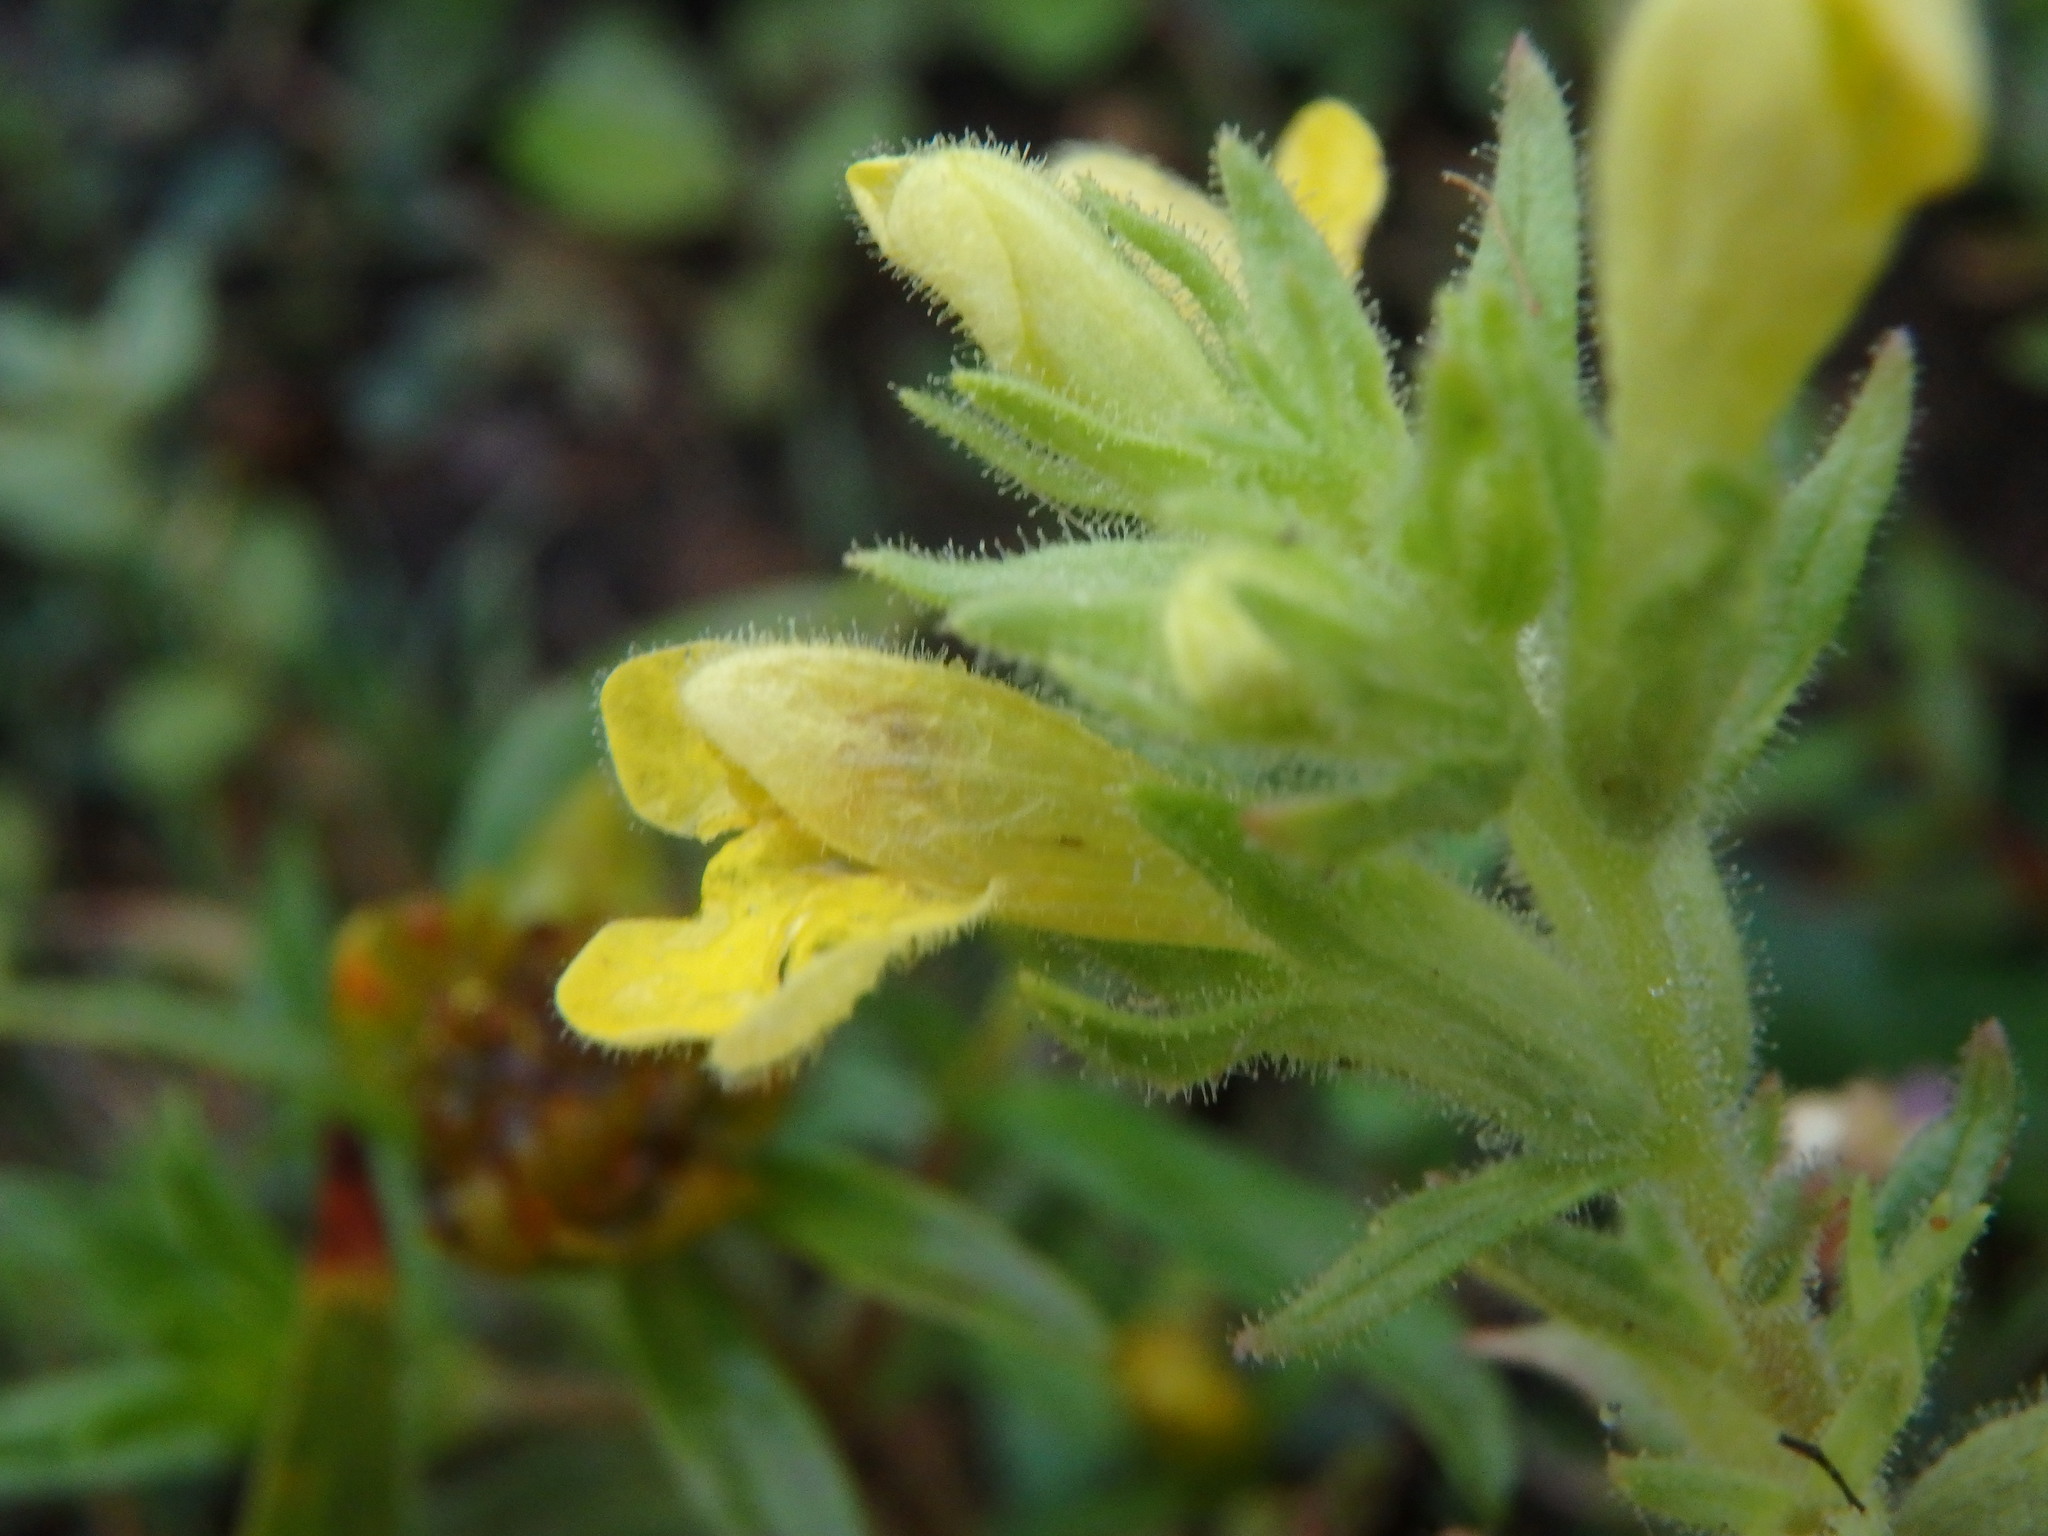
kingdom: Plantae
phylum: Tracheophyta
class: Magnoliopsida
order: Lamiales
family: Orobanchaceae
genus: Bellardia
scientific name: Bellardia viscosa
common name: Sticky parentucellia
